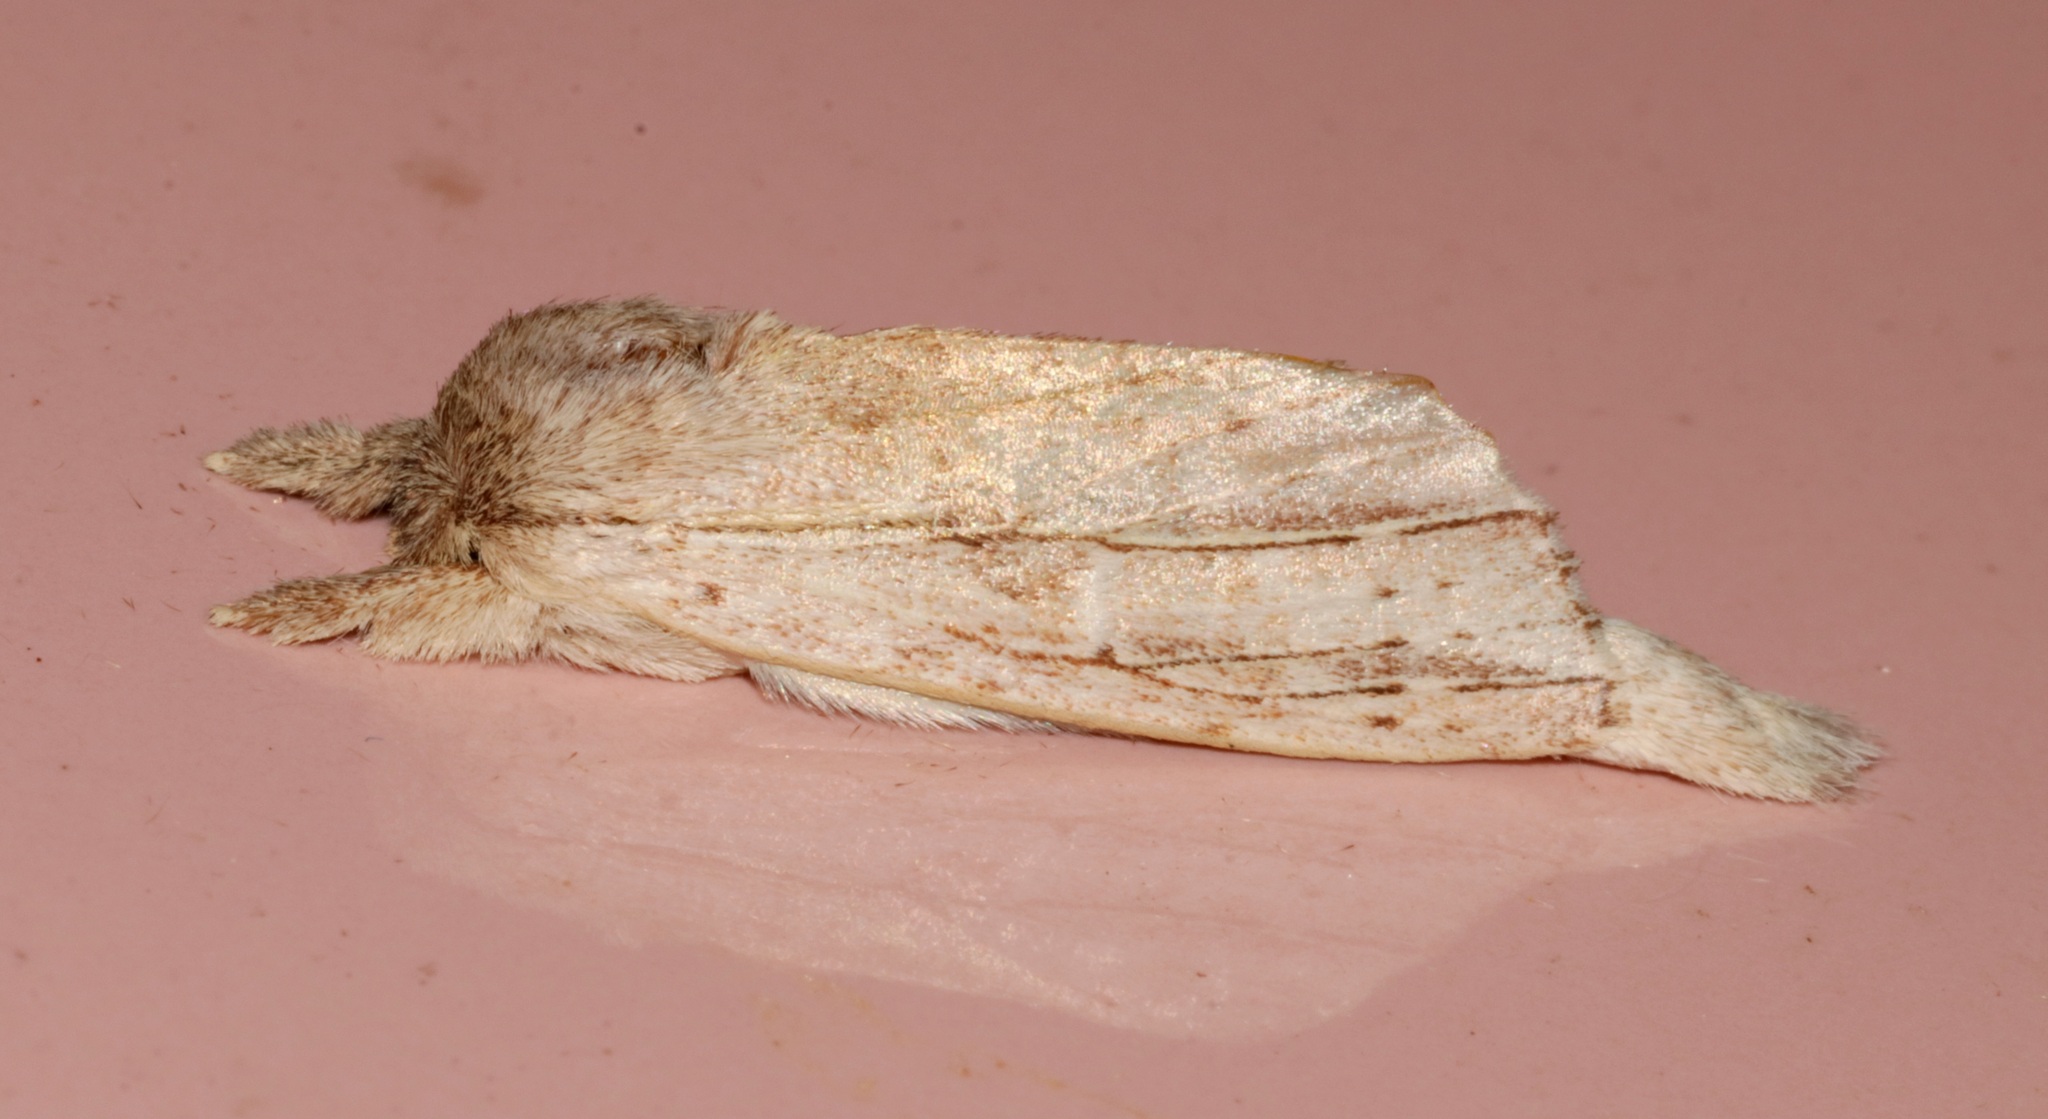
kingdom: Animalia
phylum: Arthropoda
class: Insecta
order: Lepidoptera
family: Notodontidae
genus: Ambadra
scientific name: Ambadra modesta
